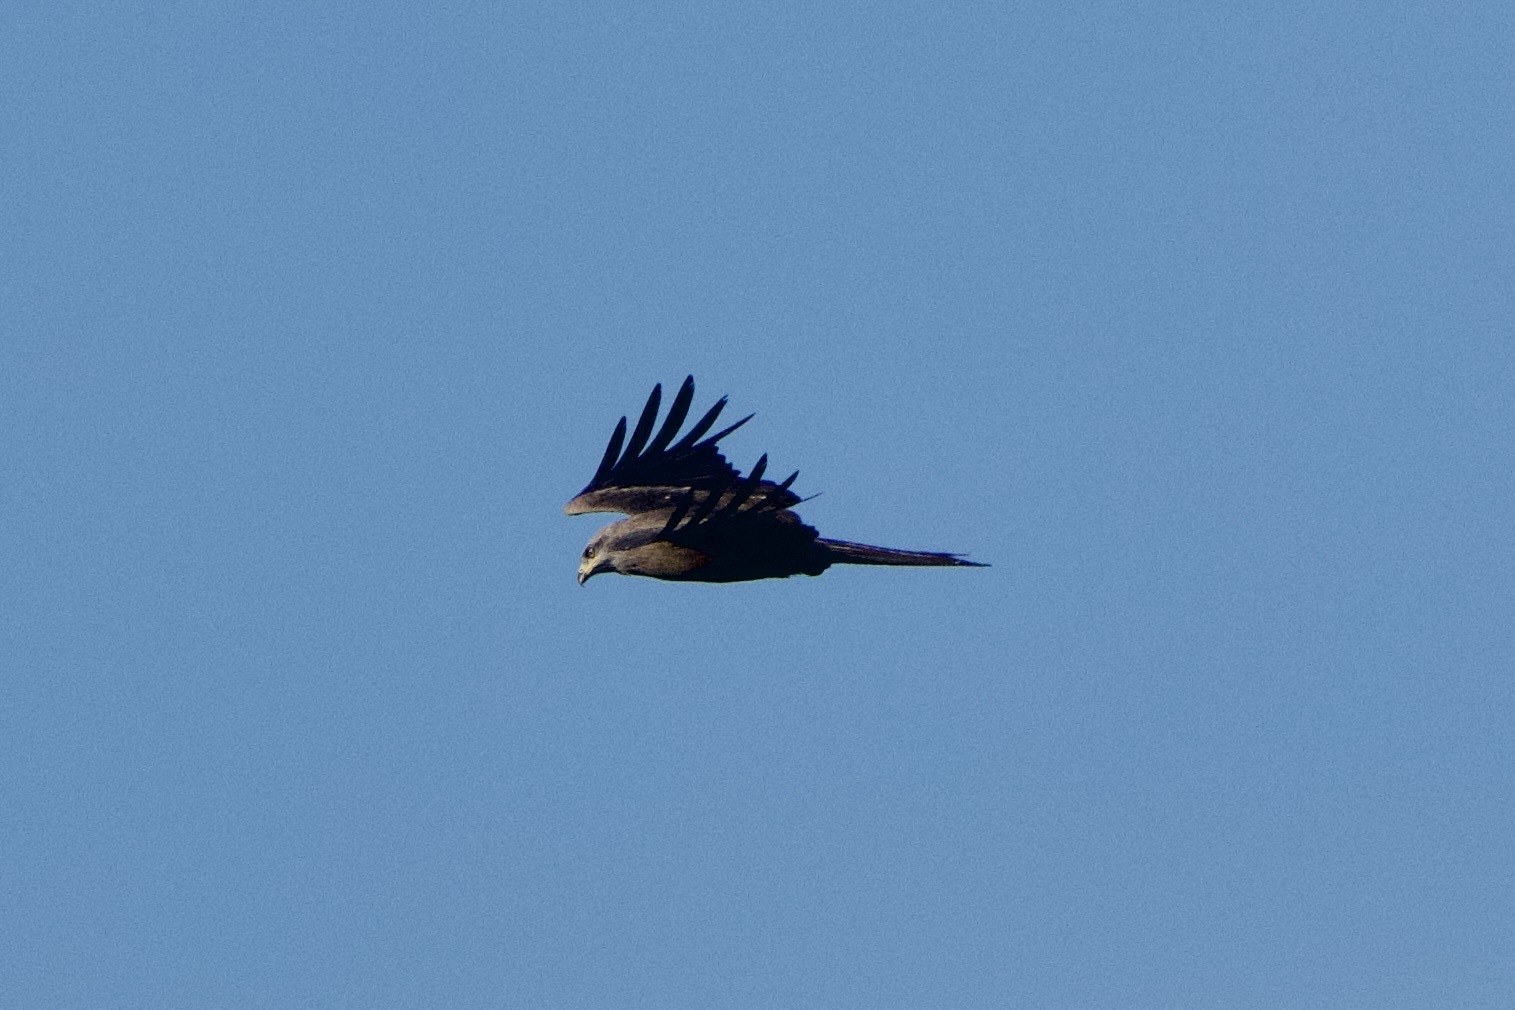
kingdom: Animalia
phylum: Chordata
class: Aves
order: Accipitriformes
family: Accipitridae
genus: Milvus
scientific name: Milvus migrans
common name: Black kite
